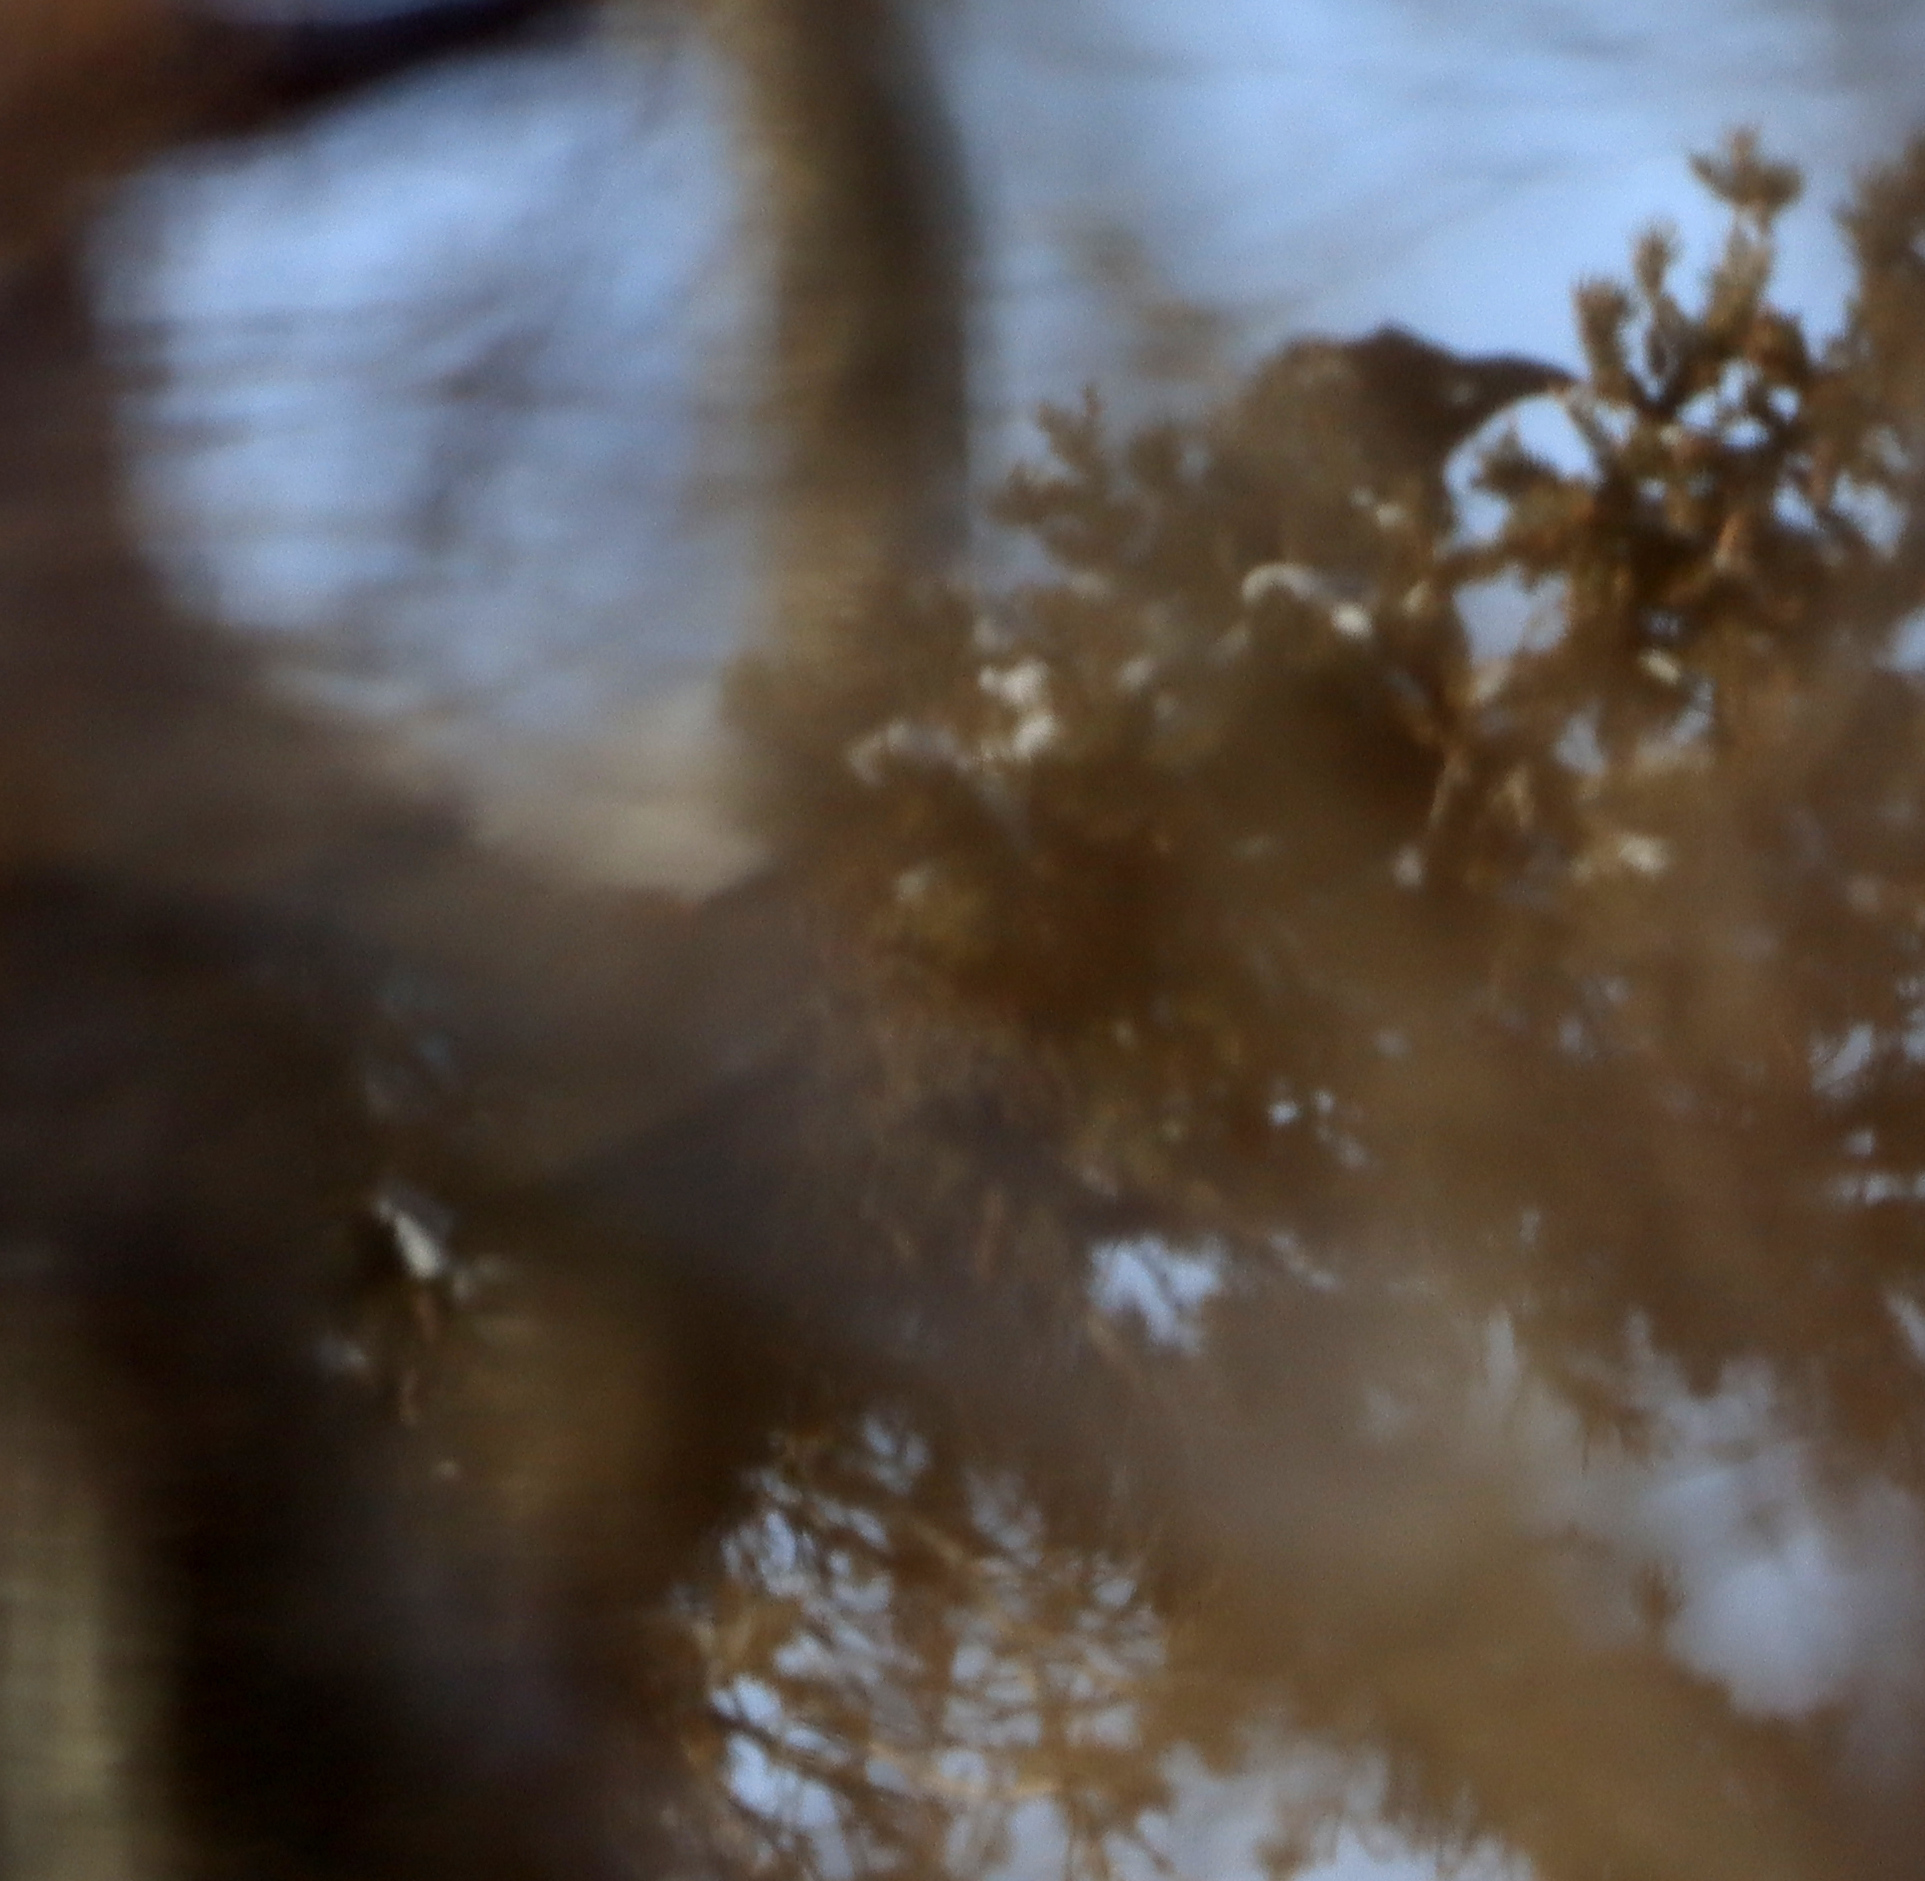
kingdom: Animalia
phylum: Chordata
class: Aves
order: Passeriformes
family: Corvidae
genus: Corvus
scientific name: Corvus corax
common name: Common raven
